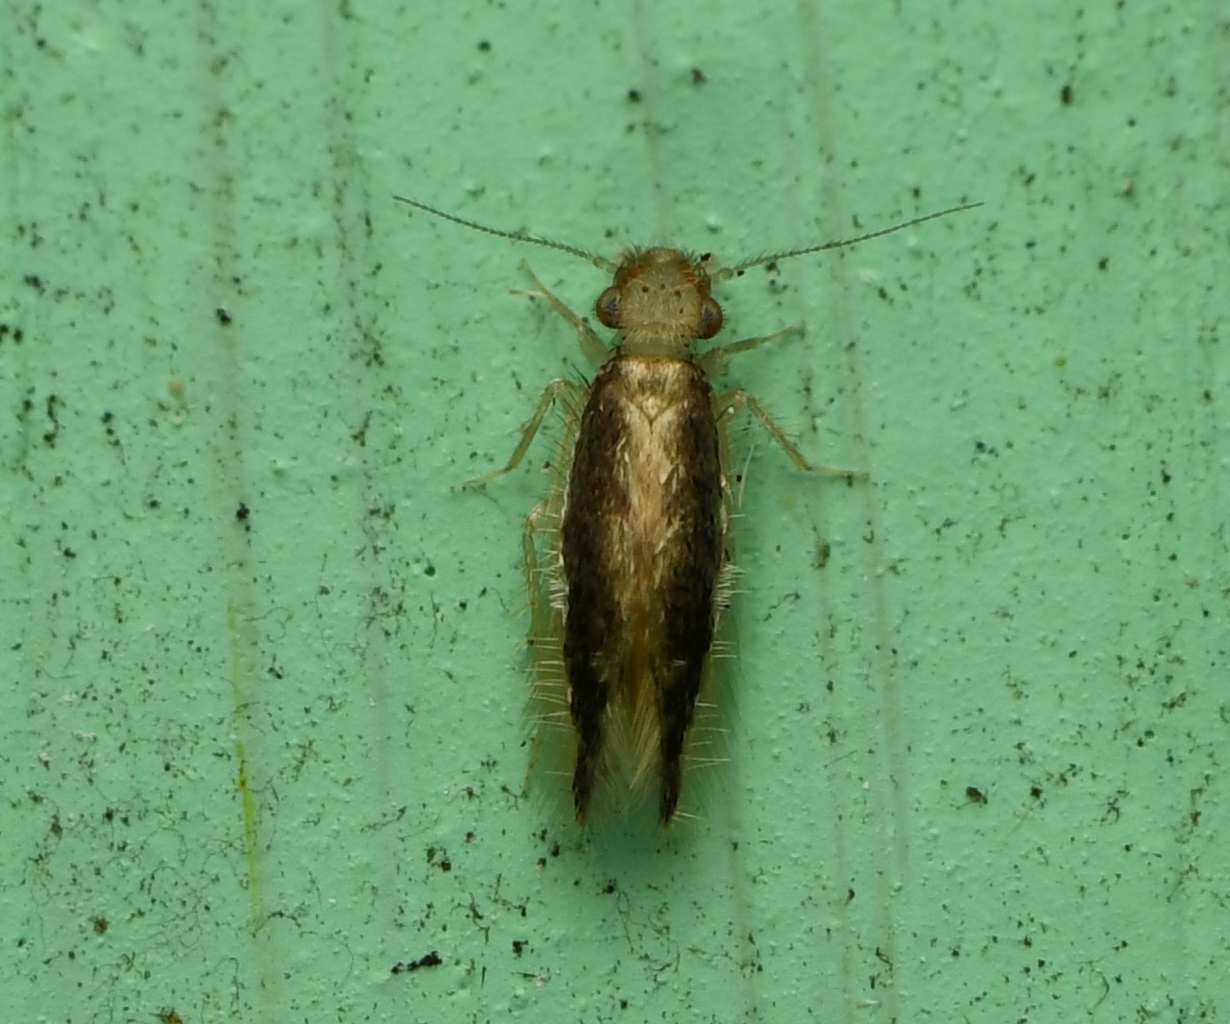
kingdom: Animalia
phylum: Arthropoda
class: Insecta
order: Psocodea
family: Lepidopsocidae
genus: Echmepteryx
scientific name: Echmepteryx madagascariensis
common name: Bark lice
